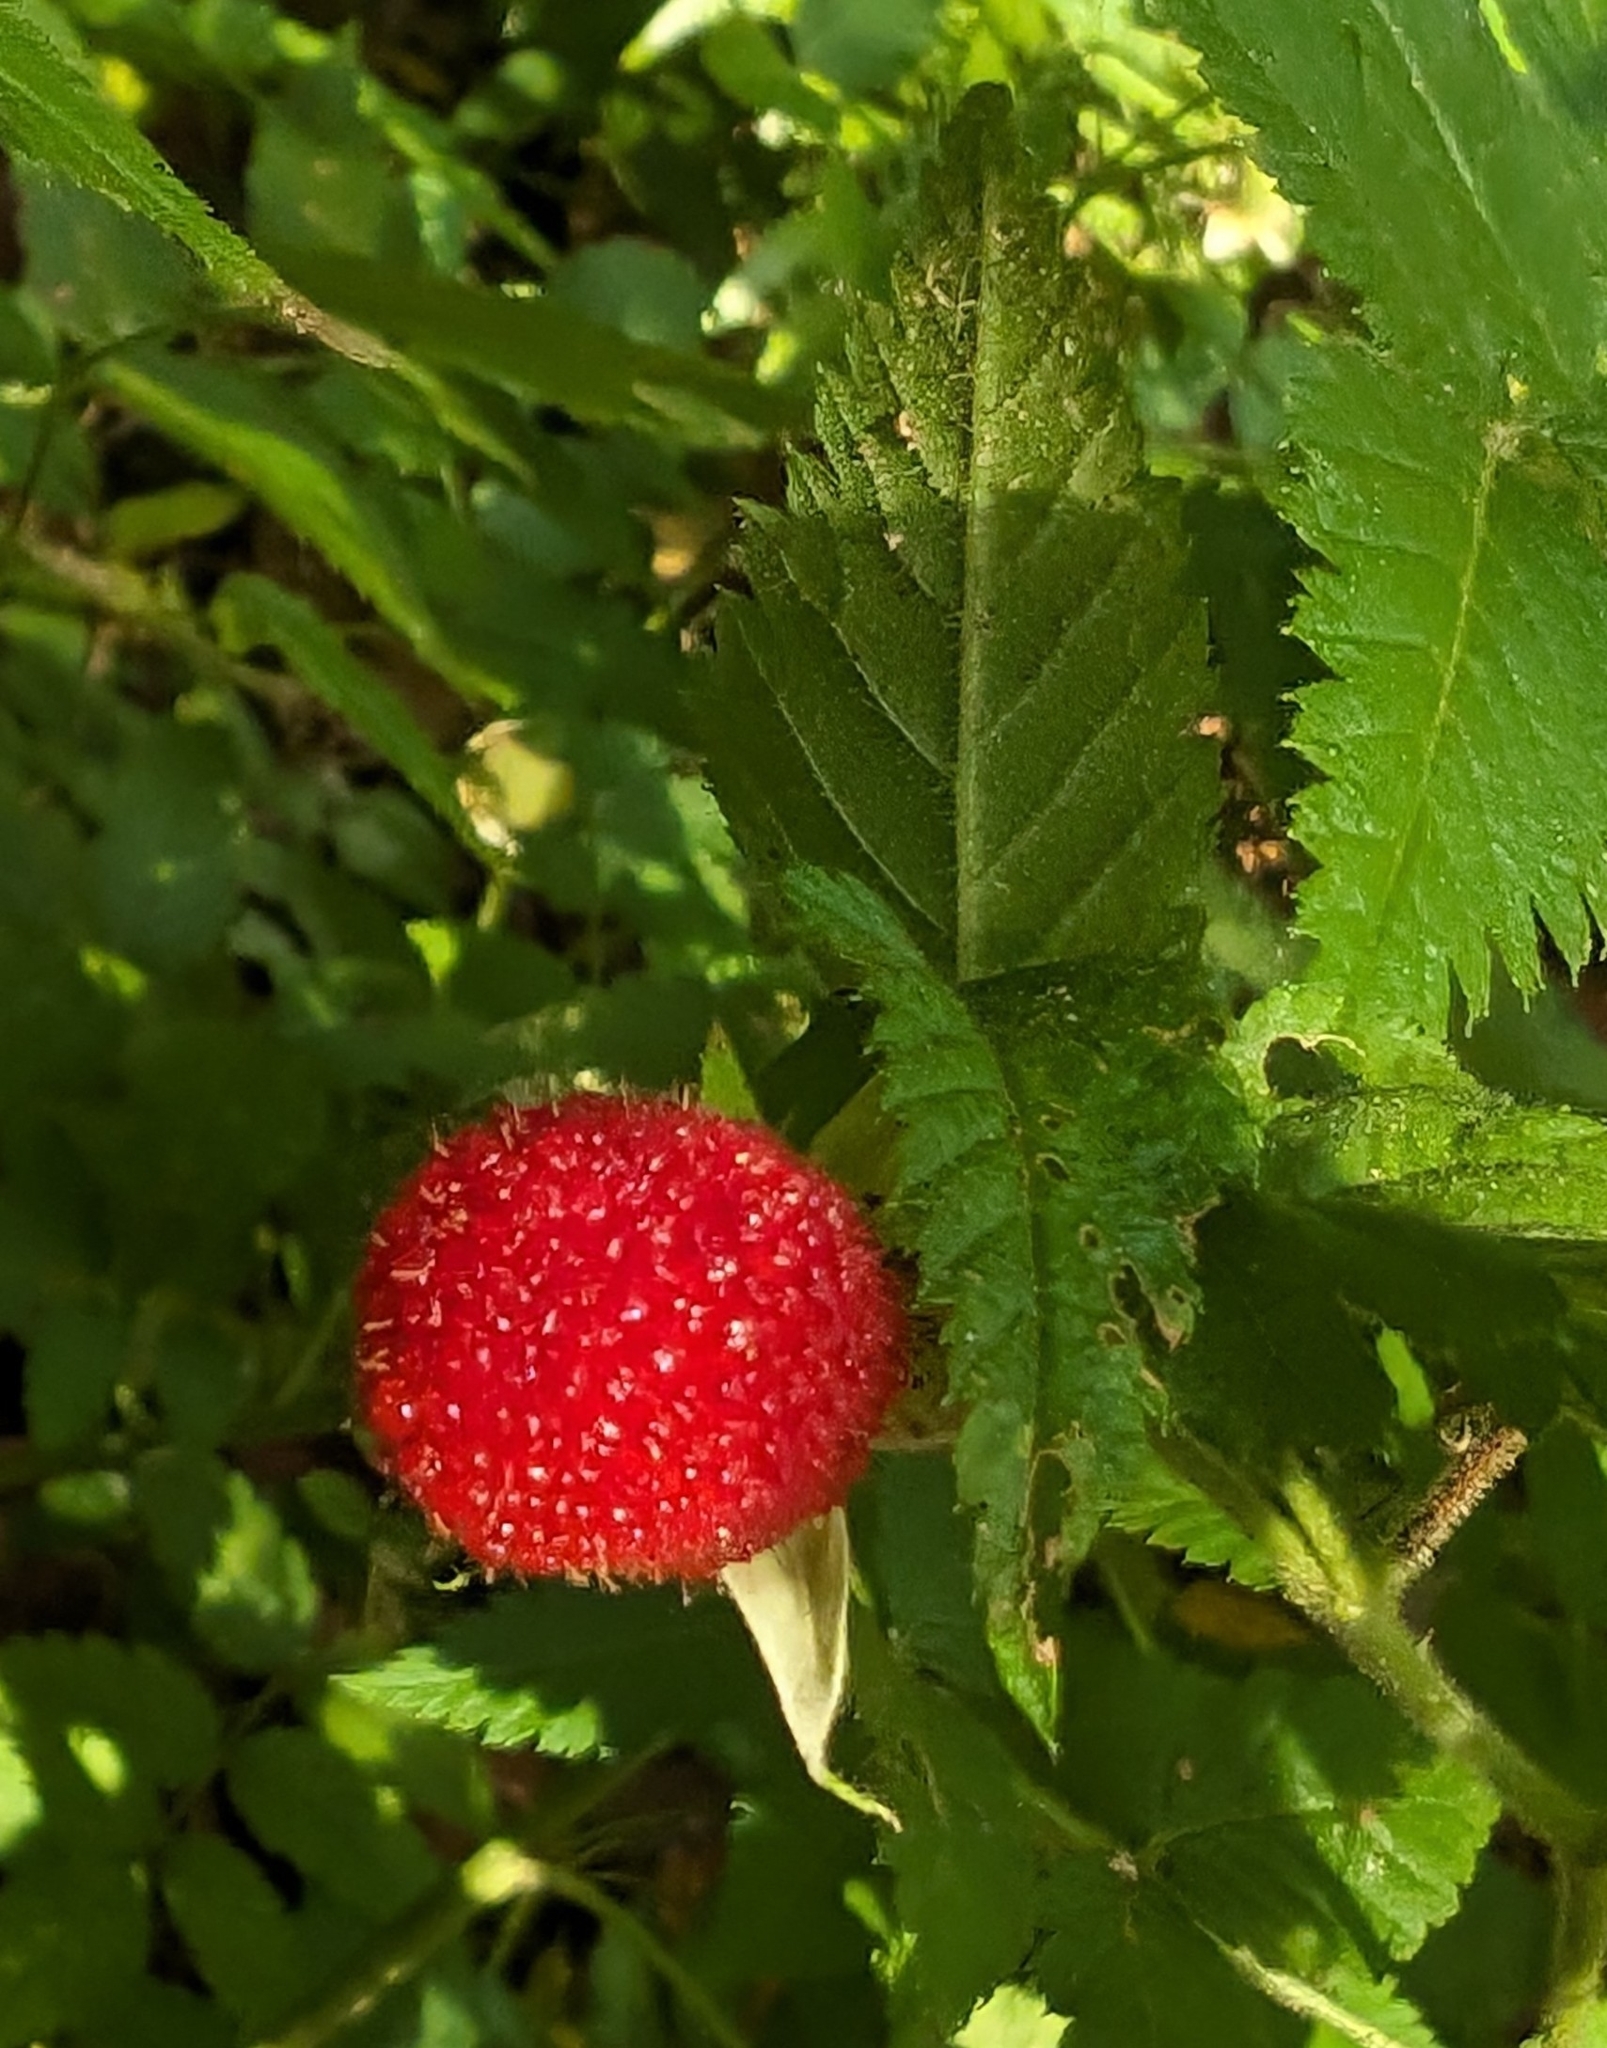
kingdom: Plantae
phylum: Tracheophyta
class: Magnoliopsida
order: Rosales
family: Rosaceae
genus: Rubus
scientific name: Rubus rosifolius
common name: Roseleaf raspberry
